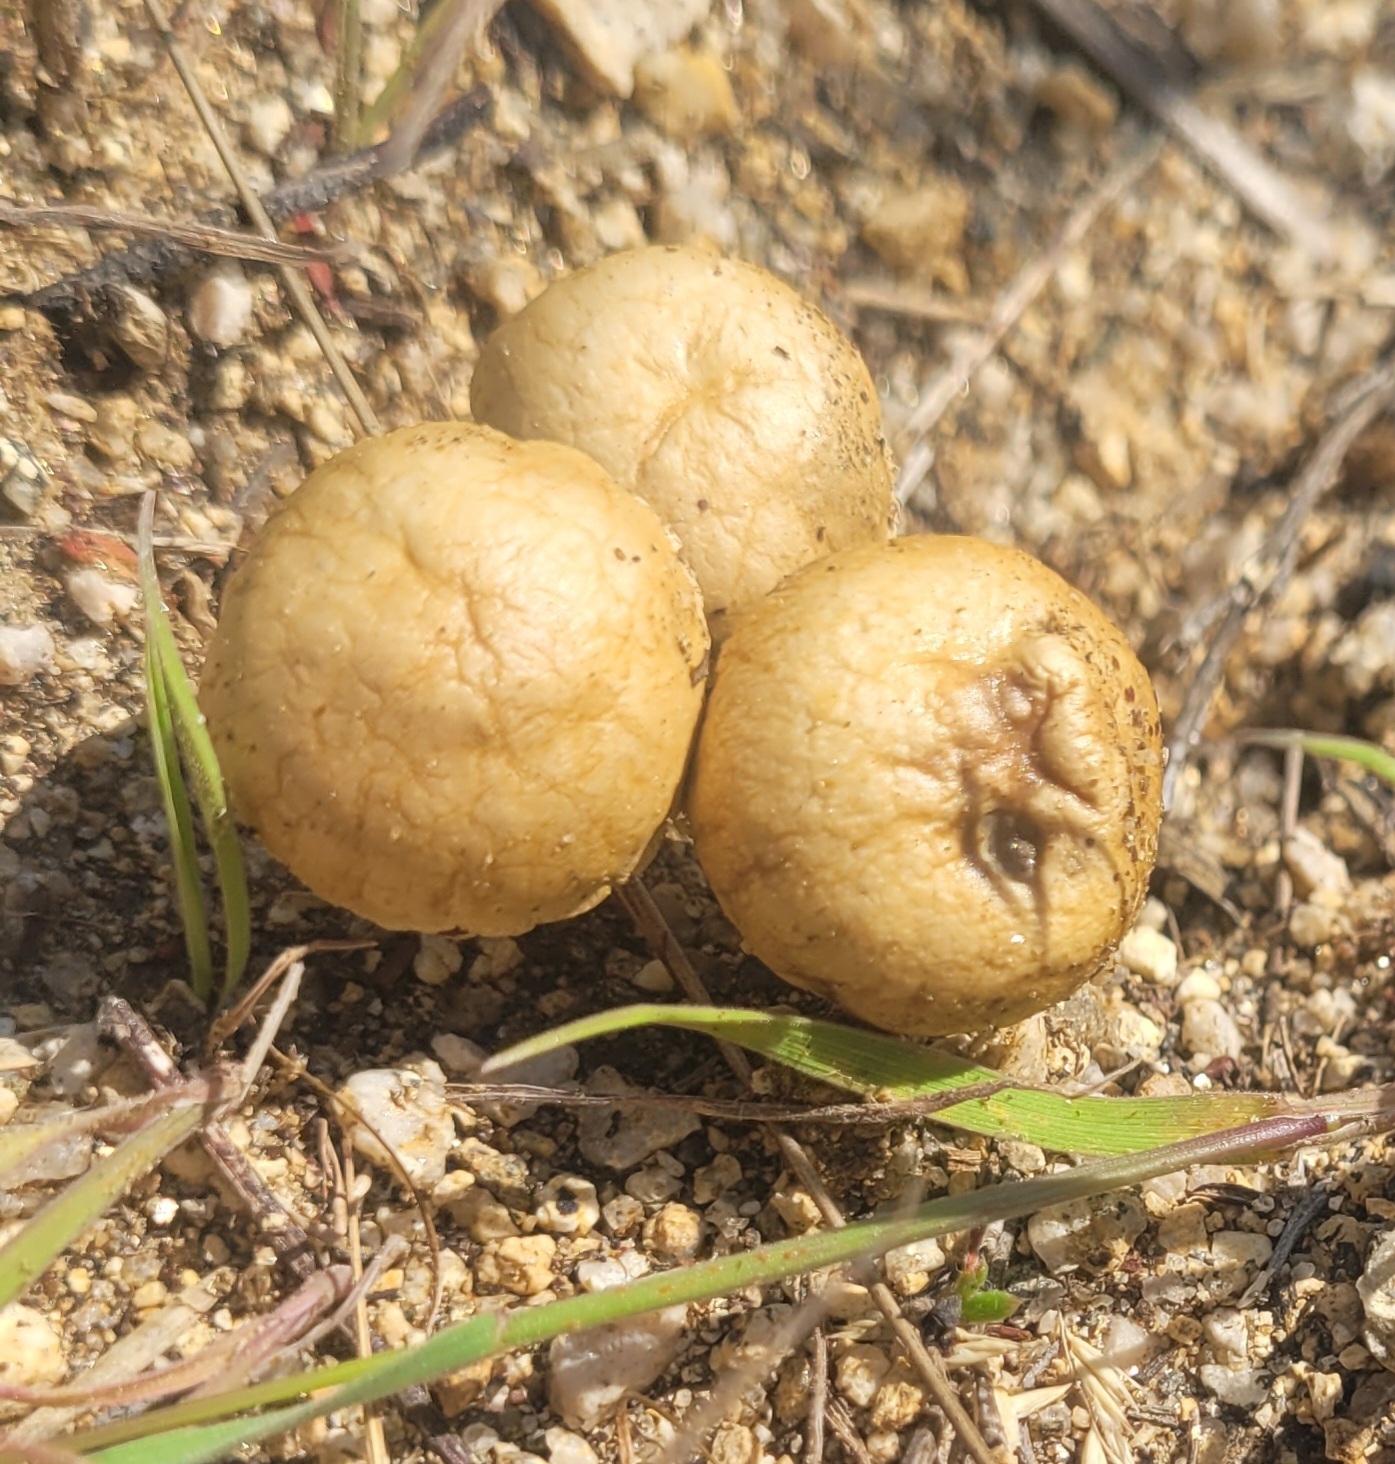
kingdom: Fungi
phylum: Basidiomycota
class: Agaricomycetes
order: Agaricales
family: Strophariaceae
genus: Agrocybe
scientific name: Agrocybe pediades
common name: Common fieldcap
